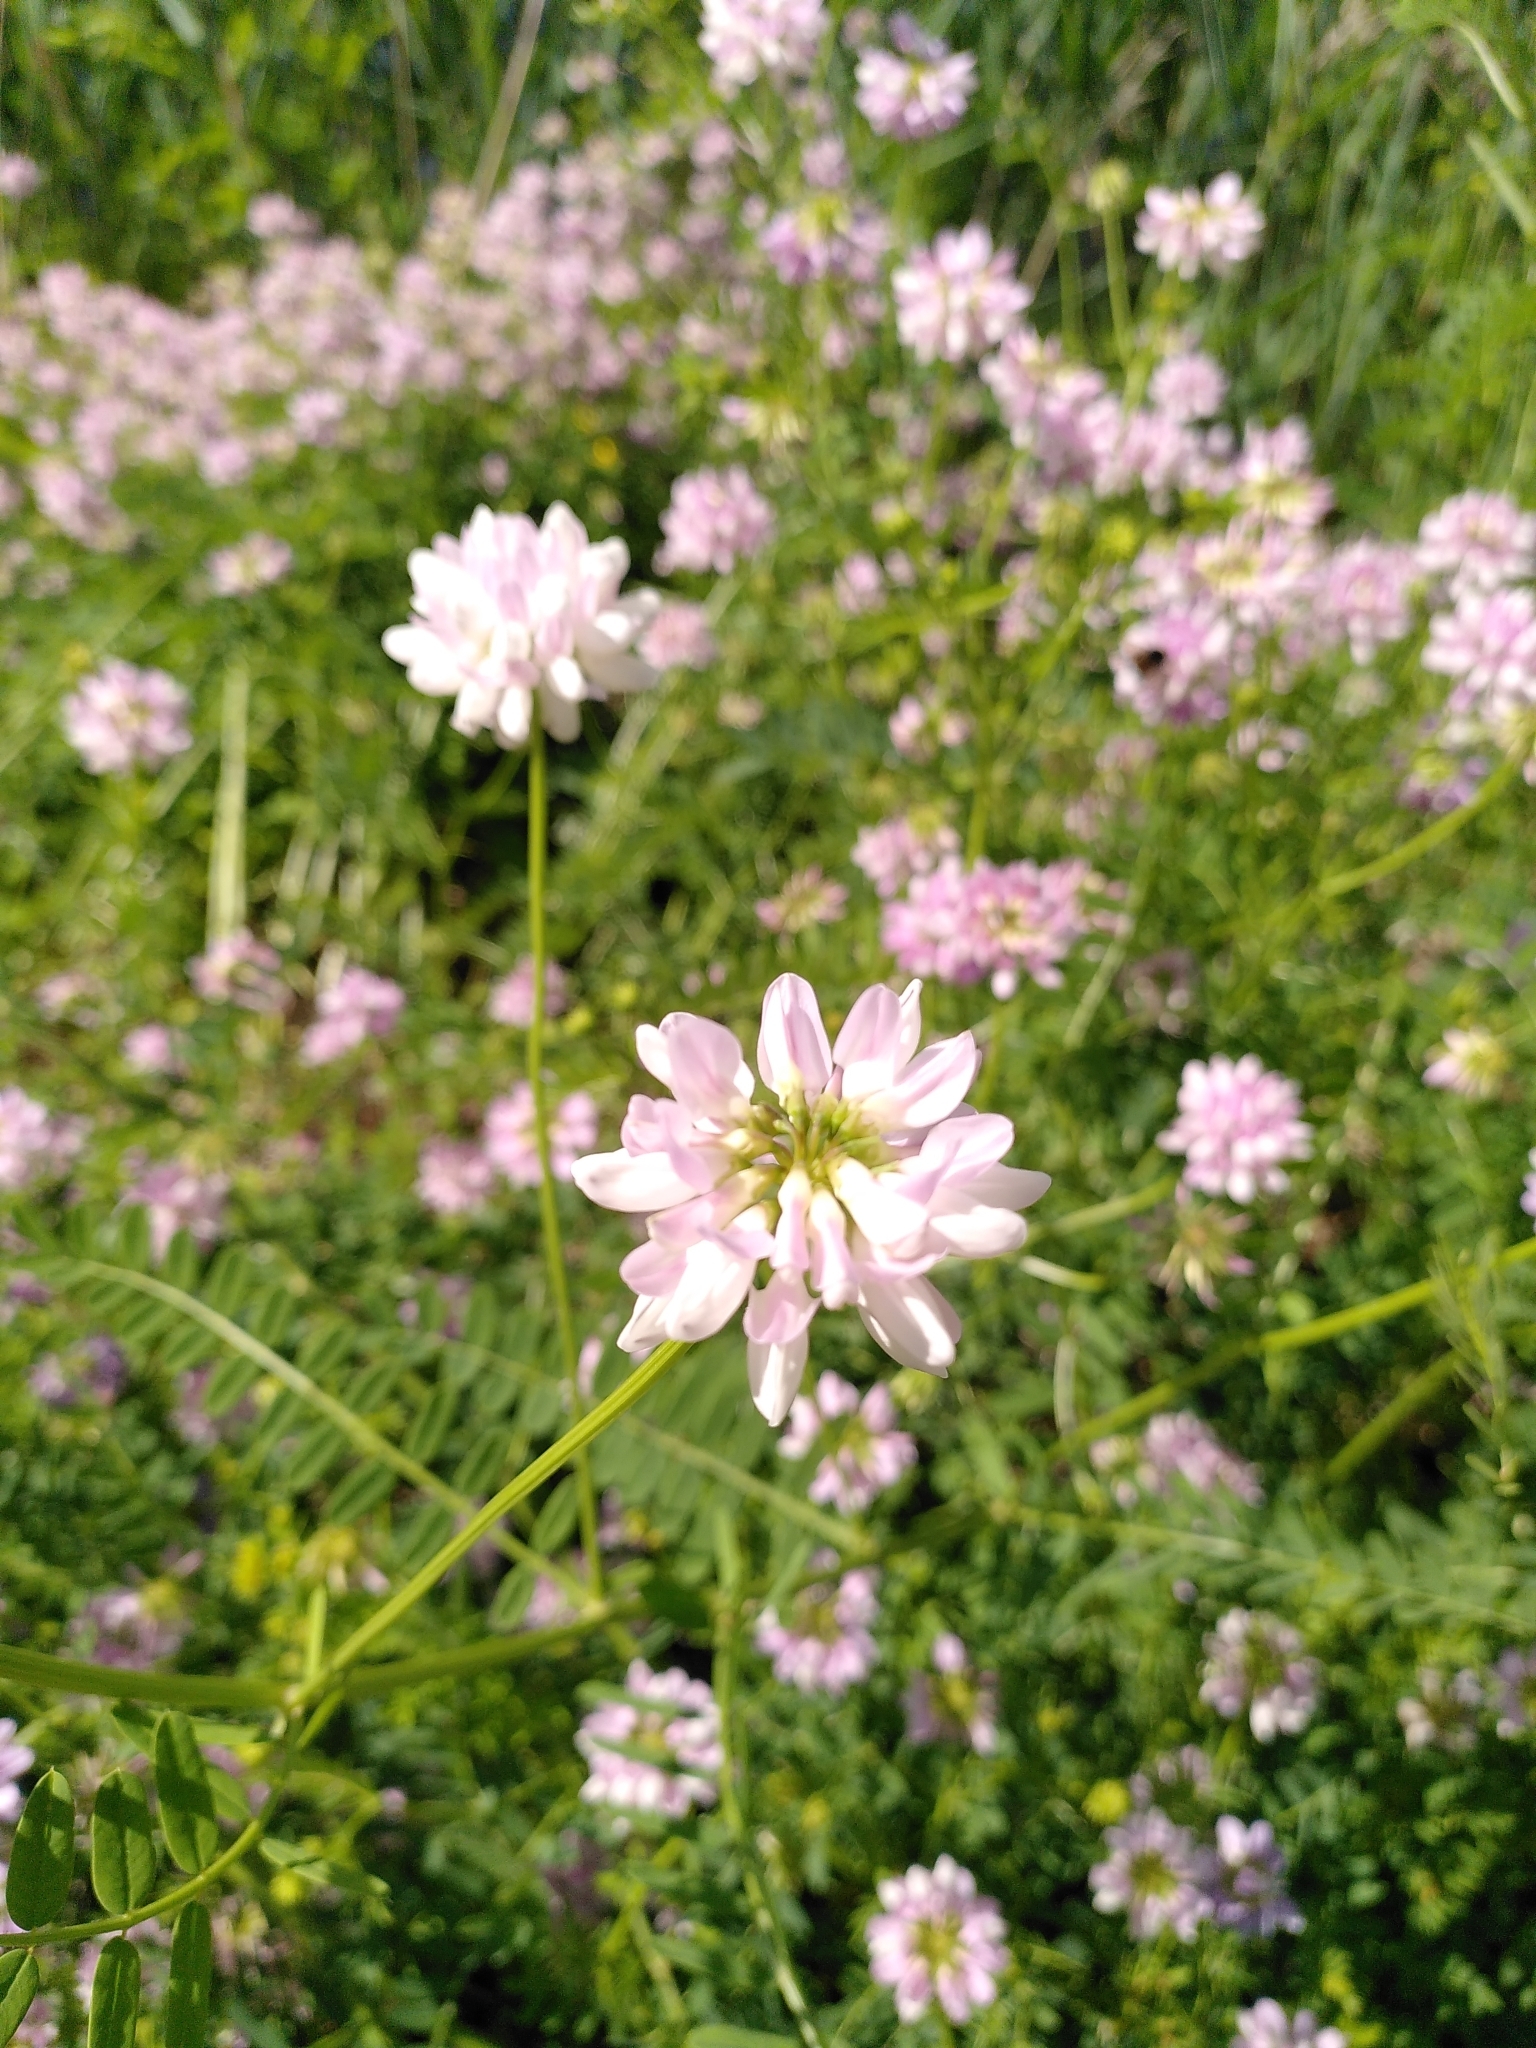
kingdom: Plantae
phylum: Tracheophyta
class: Magnoliopsida
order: Fabales
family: Fabaceae
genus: Coronilla
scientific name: Coronilla varia
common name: Crownvetch
